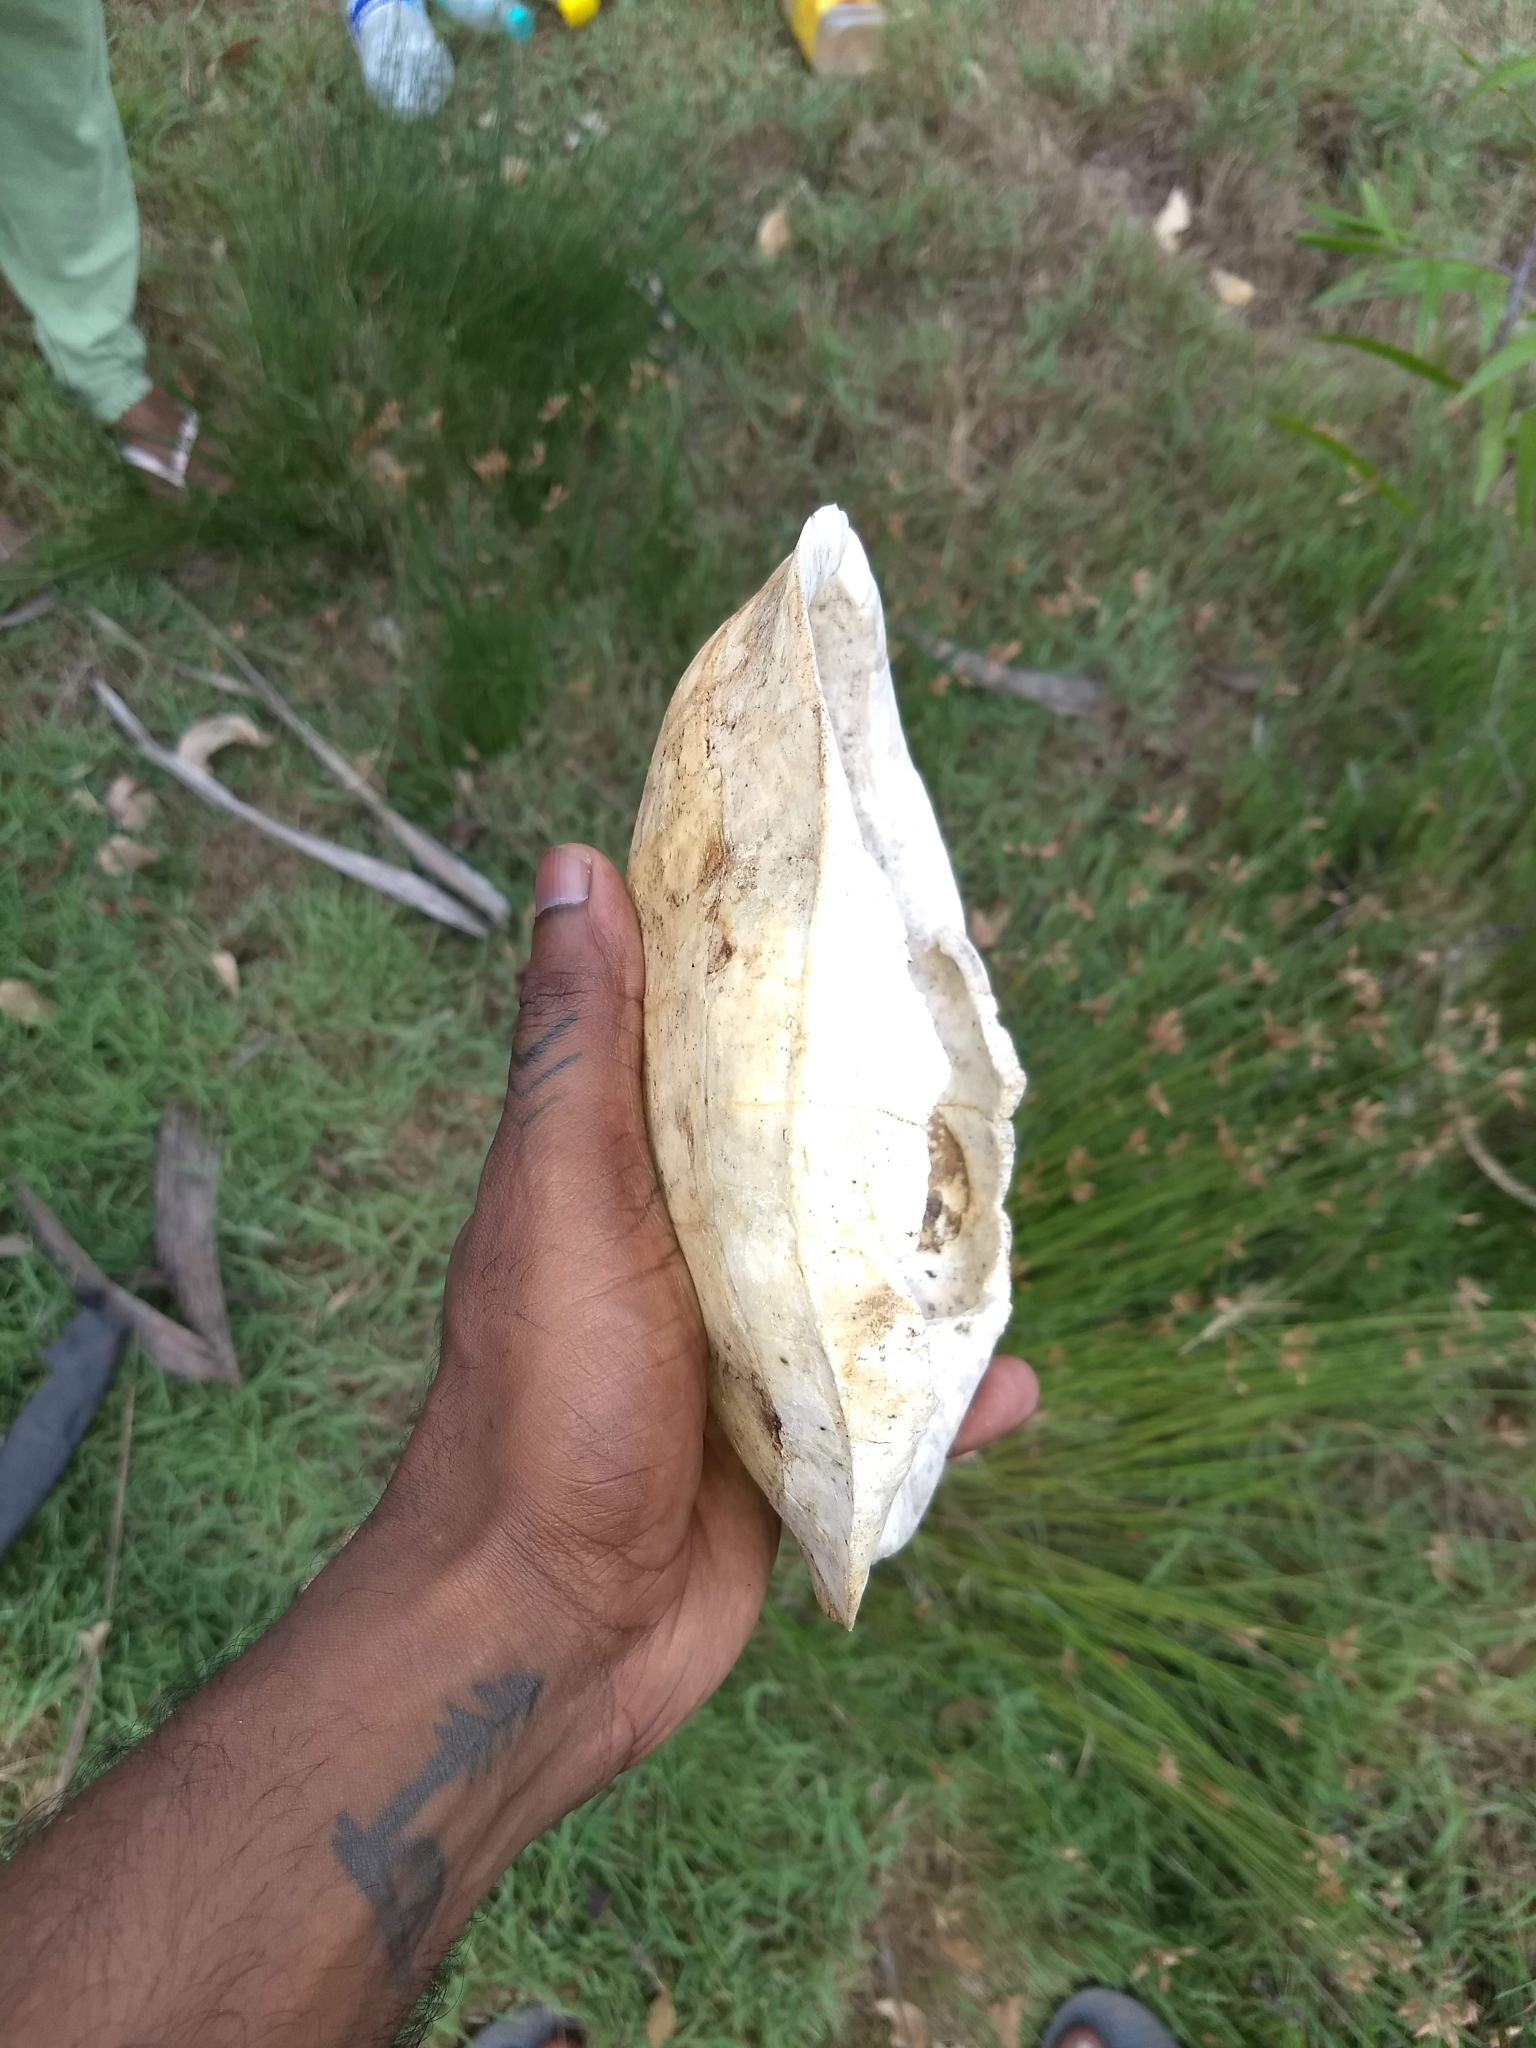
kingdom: Animalia
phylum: Chordata
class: Testudines
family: Geoemydidae
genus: Melanochelys
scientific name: Melanochelys trijuga
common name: Indian black turtle
